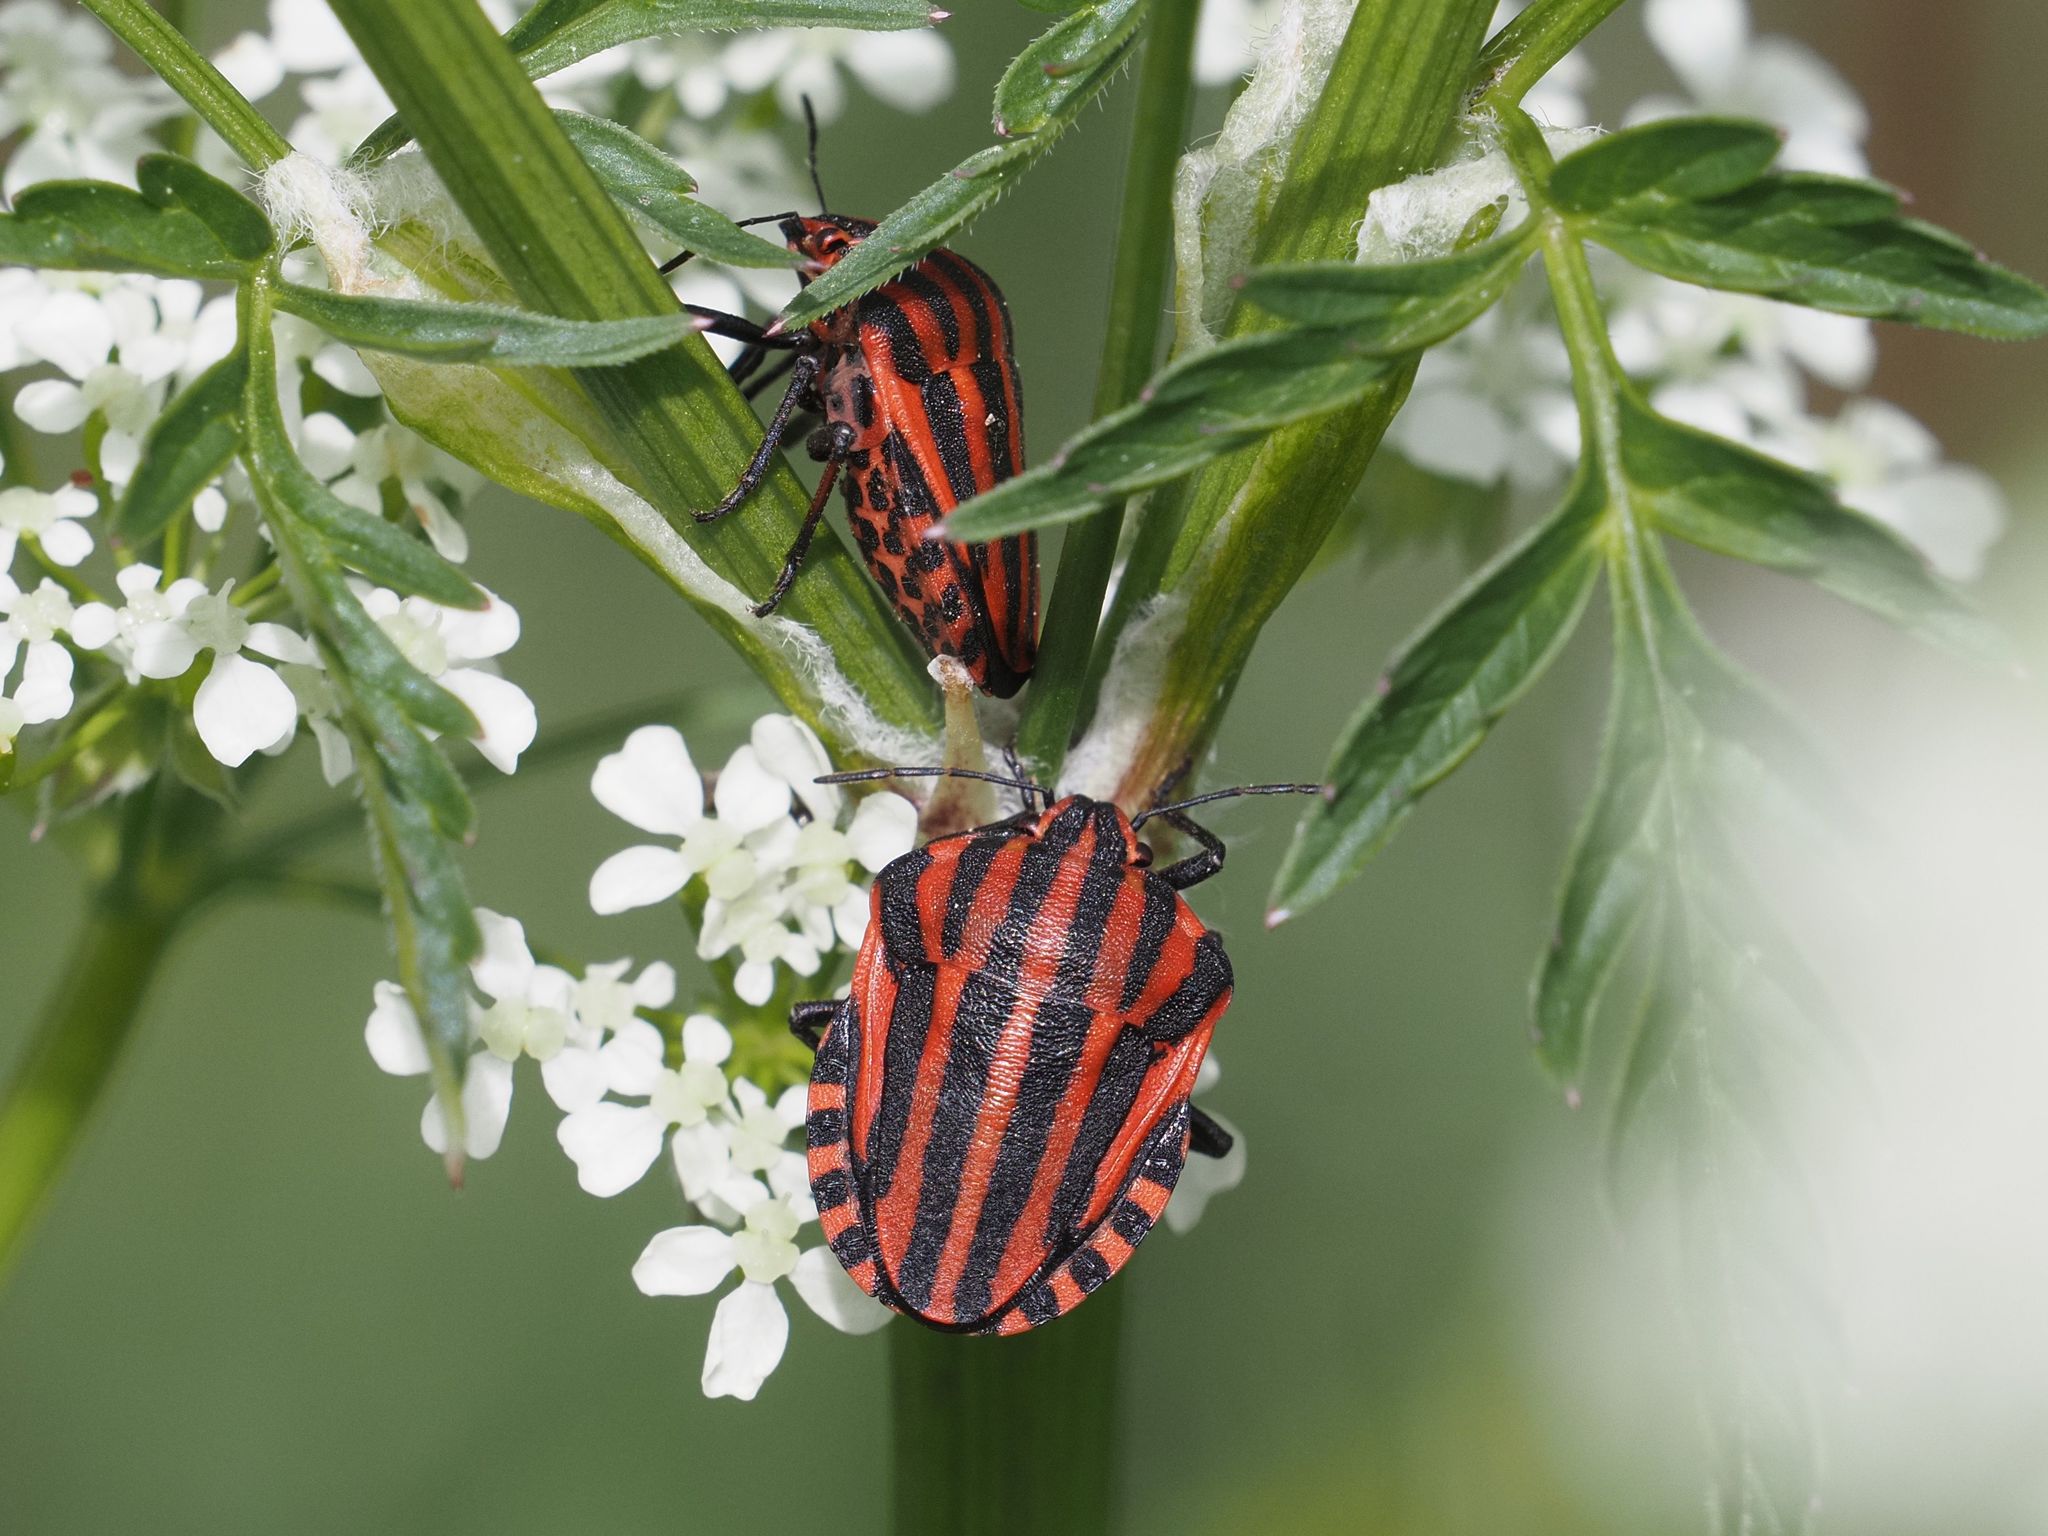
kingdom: Animalia
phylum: Arthropoda
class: Insecta
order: Hemiptera
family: Pentatomidae
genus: Graphosoma
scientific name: Graphosoma italicum
